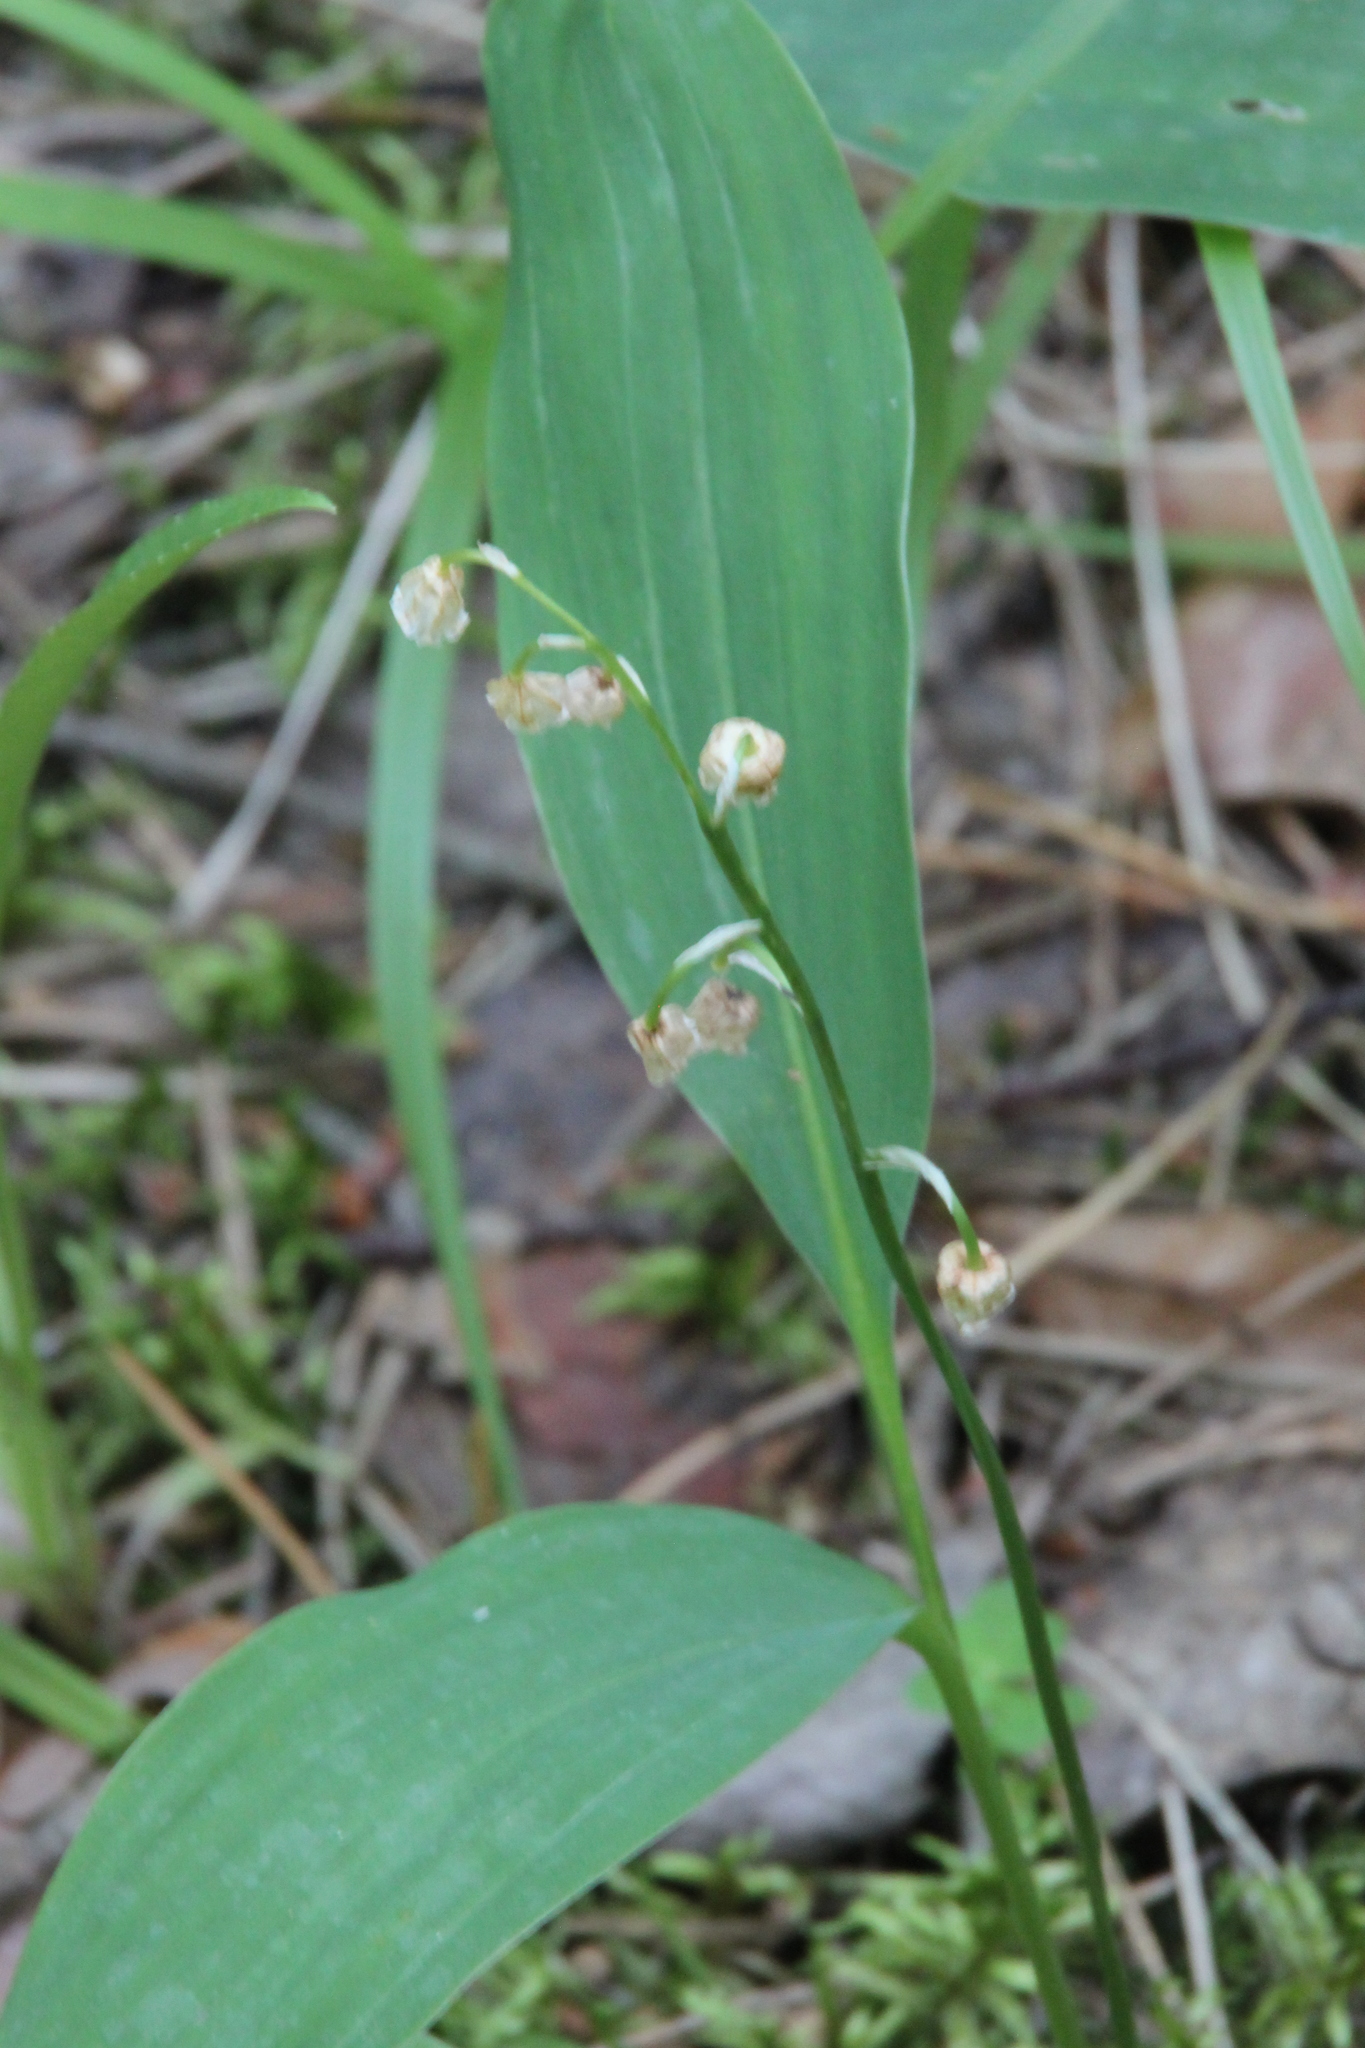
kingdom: Plantae
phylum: Tracheophyta
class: Liliopsida
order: Asparagales
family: Asparagaceae
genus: Convallaria
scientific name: Convallaria majalis
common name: Lily-of-the-valley
